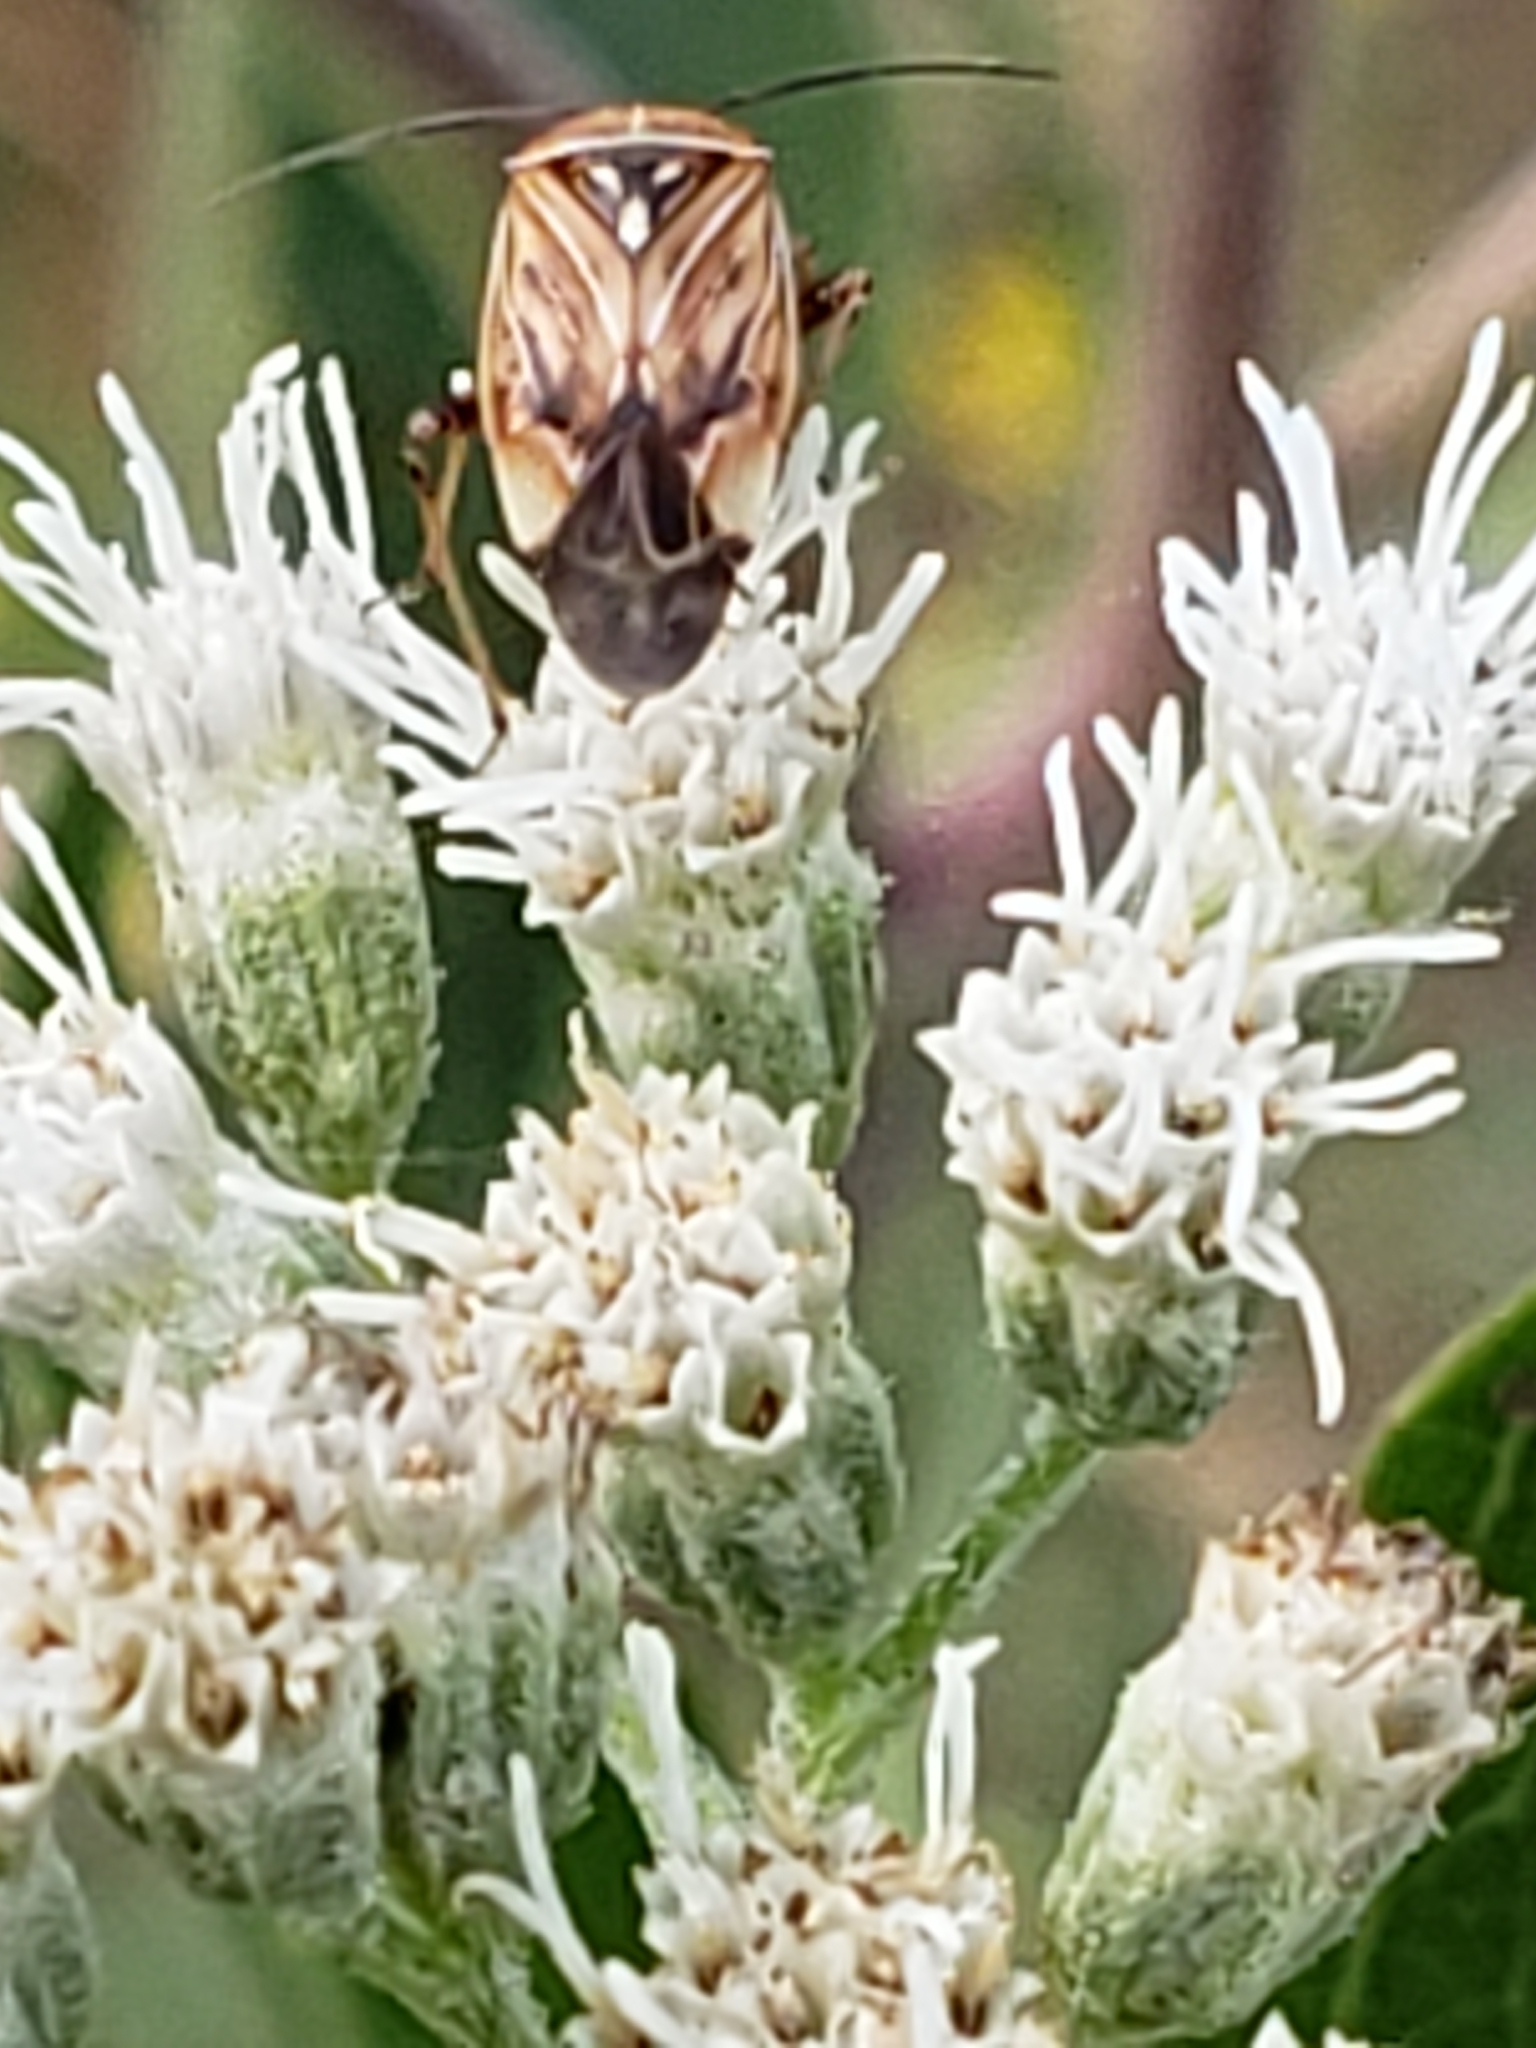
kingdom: Animalia
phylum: Arthropoda
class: Insecta
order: Hemiptera
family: Miridae
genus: Lygus
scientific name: Lygus lineolaris
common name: North american tarnished plant bug
